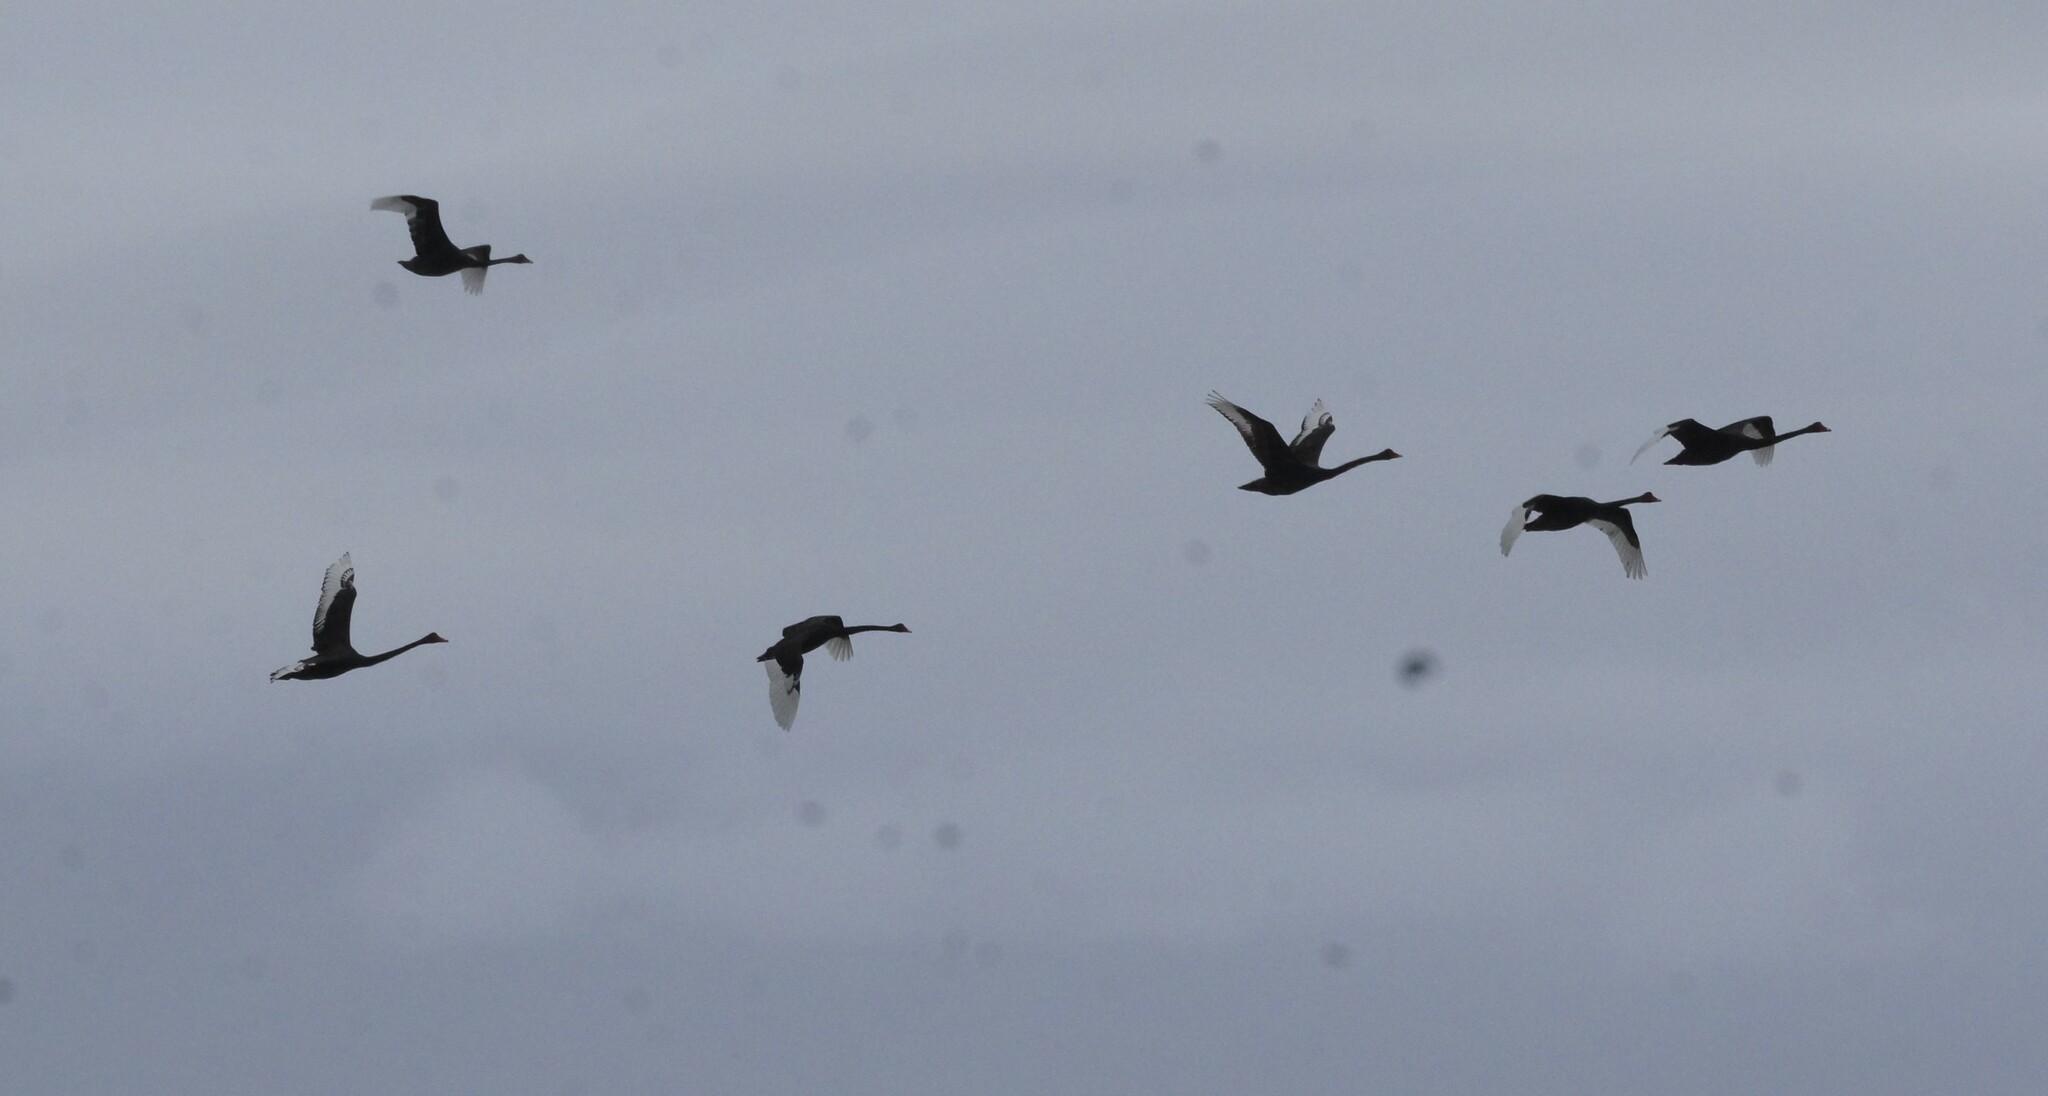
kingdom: Animalia
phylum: Chordata
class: Aves
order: Anseriformes
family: Anatidae
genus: Cygnus
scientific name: Cygnus atratus
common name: Black swan
